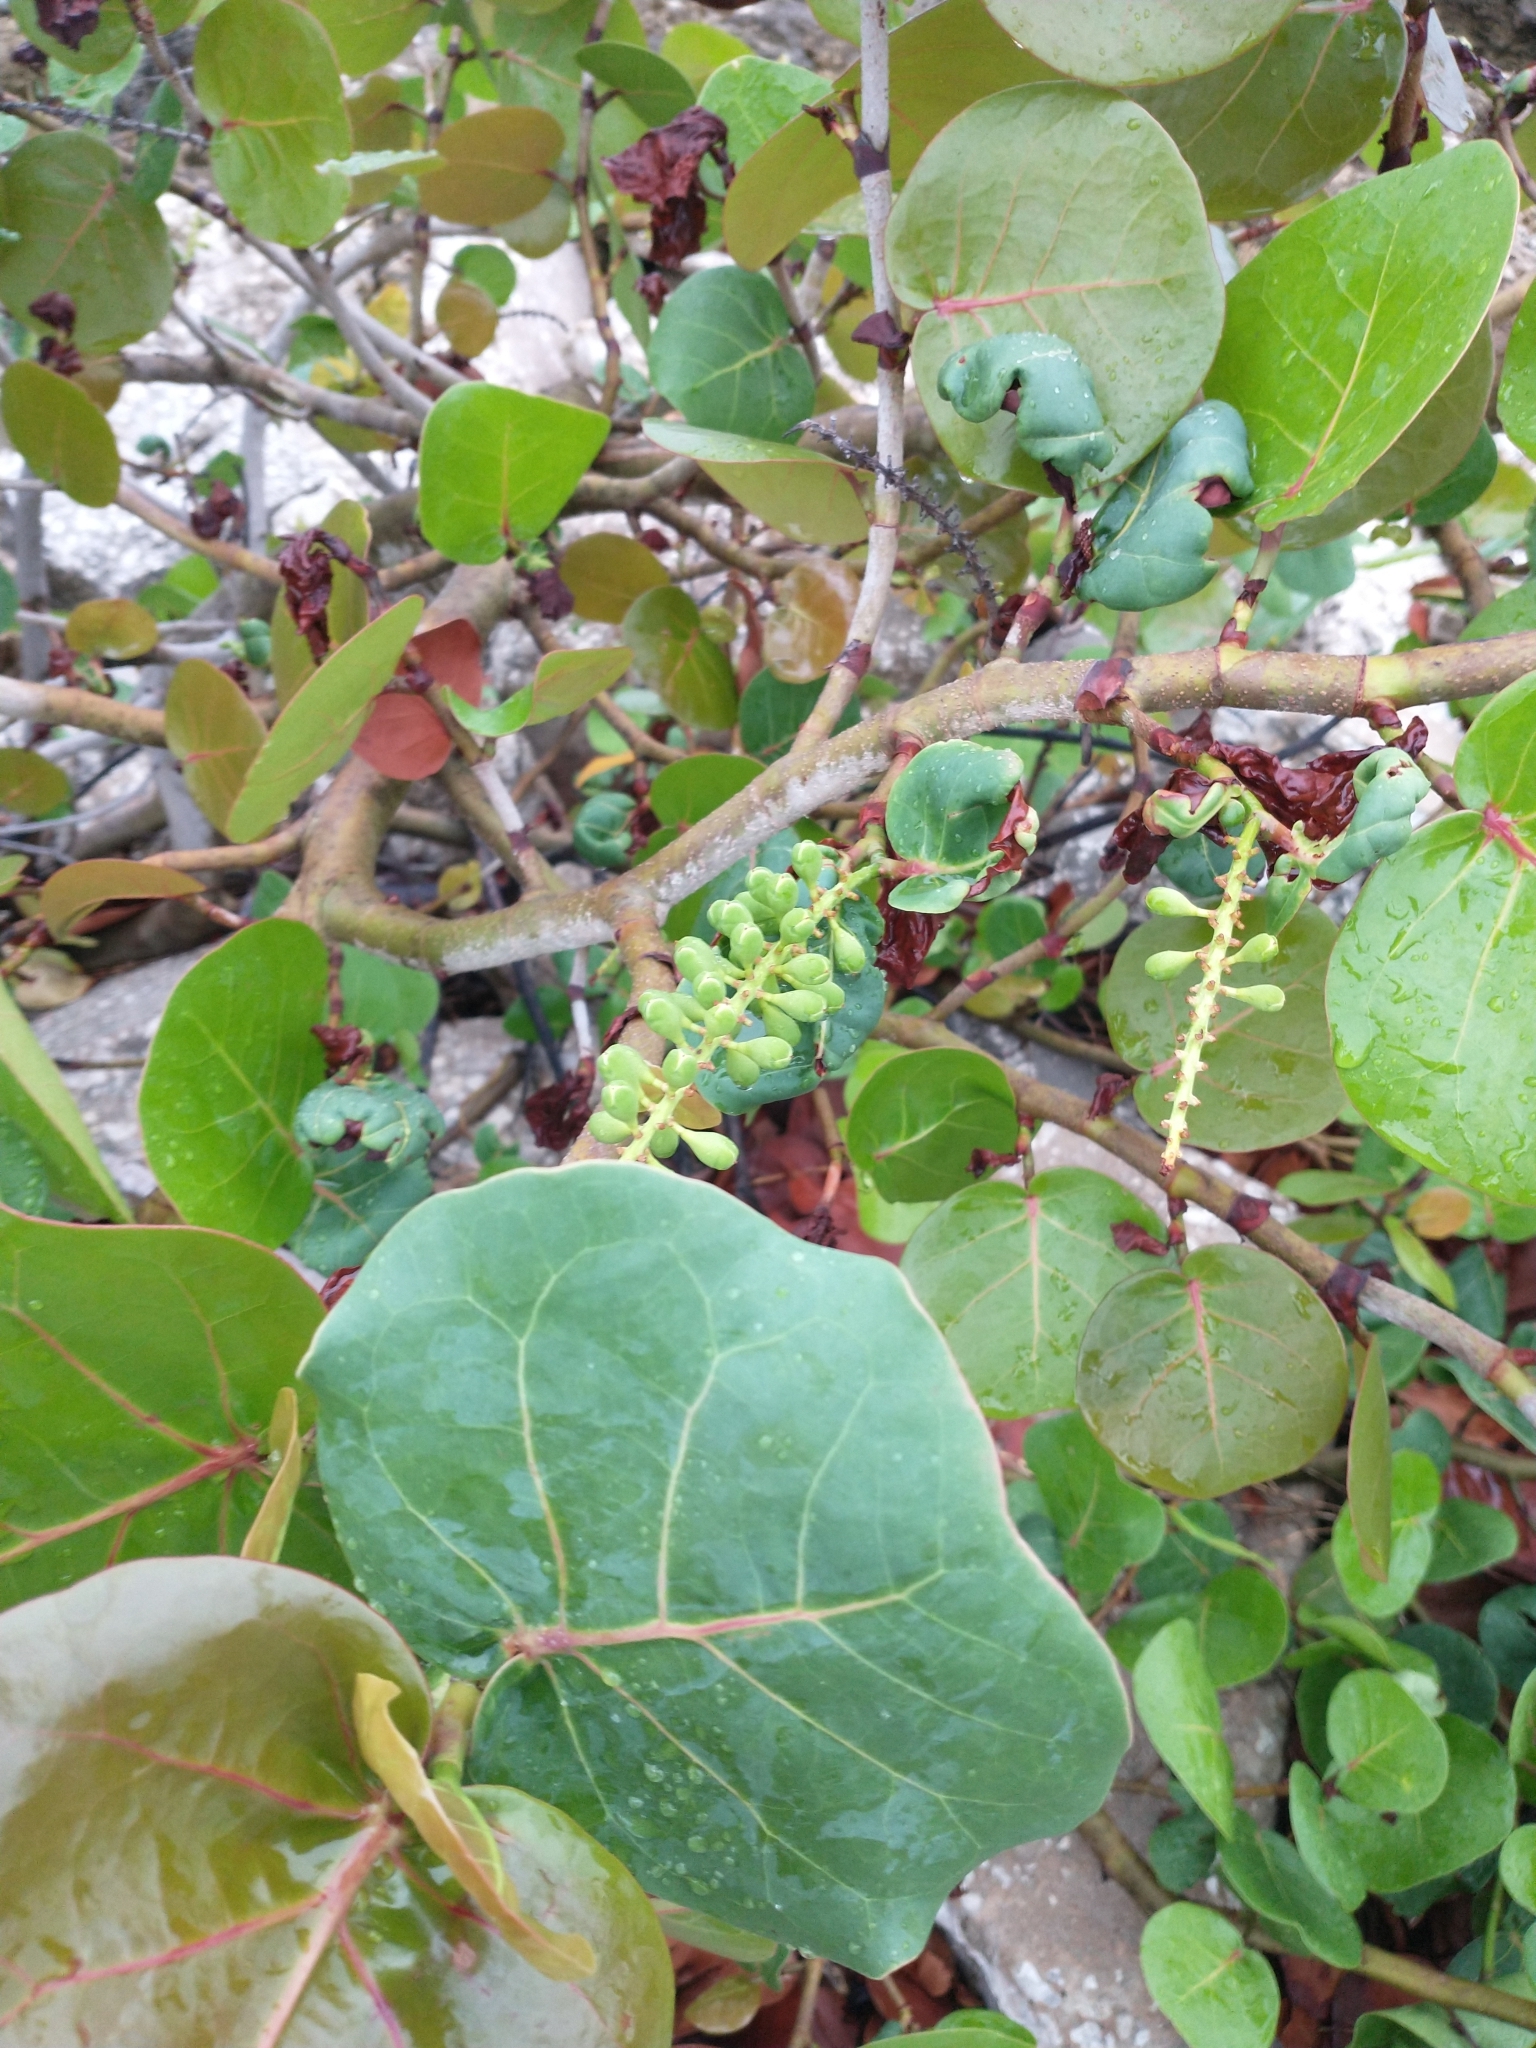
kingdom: Plantae
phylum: Tracheophyta
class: Magnoliopsida
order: Caryophyllales
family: Polygonaceae
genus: Coccoloba
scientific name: Coccoloba uvifera
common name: Seagrape
